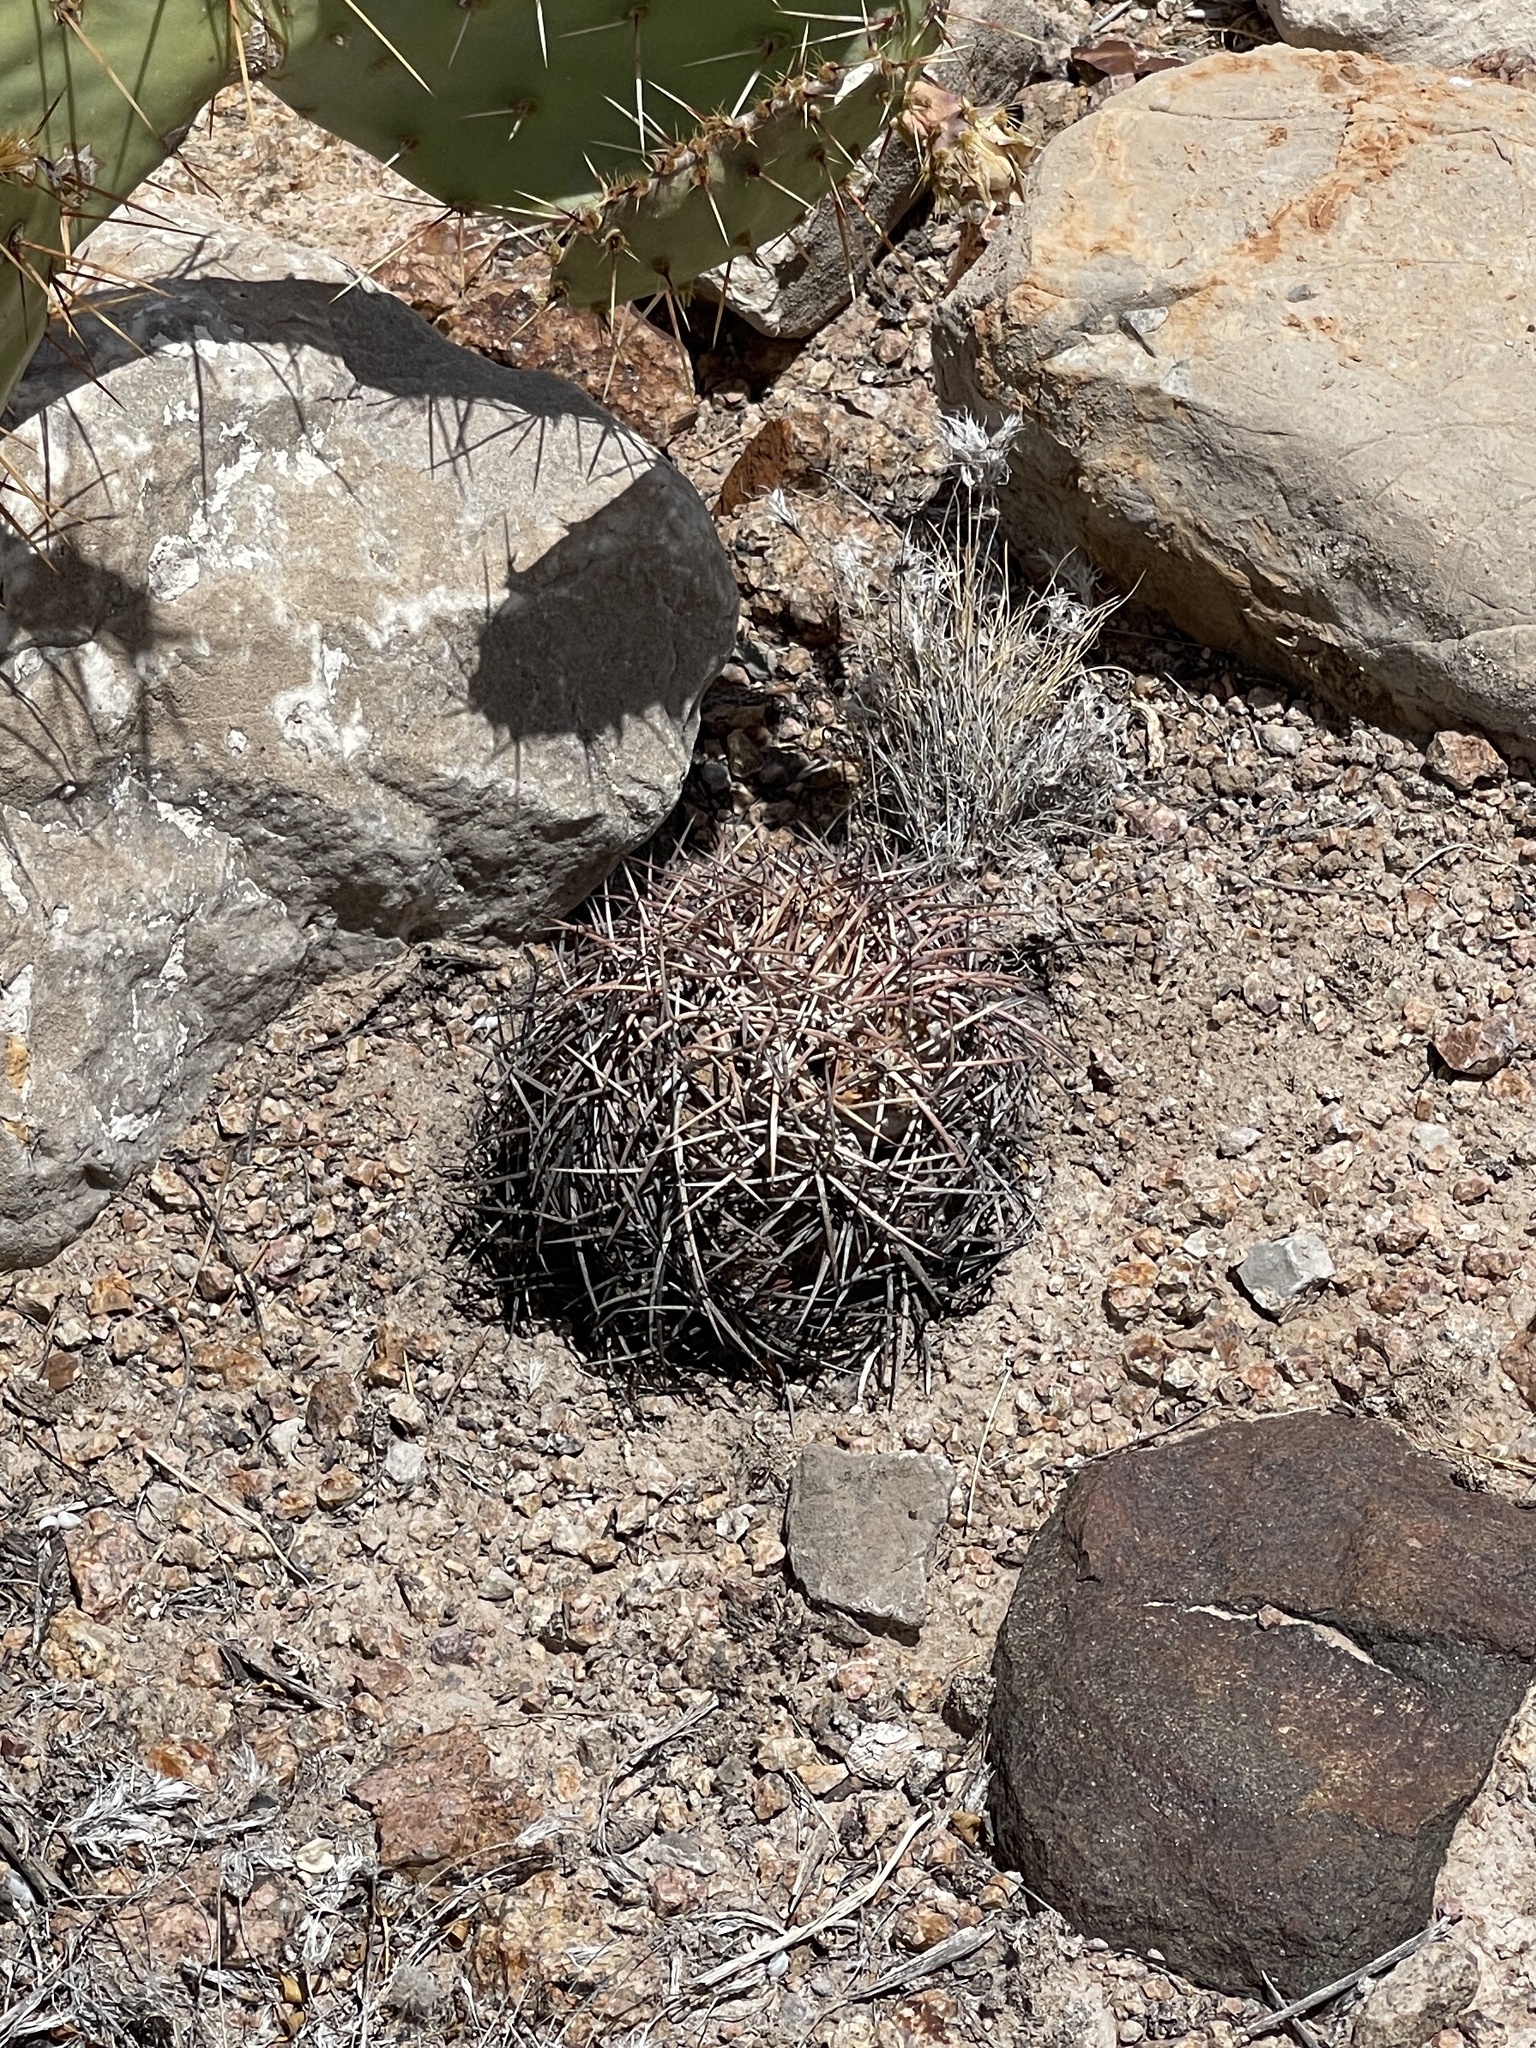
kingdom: Plantae
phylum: Tracheophyta
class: Magnoliopsida
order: Caryophyllales
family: Cactaceae
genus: Echinocactus
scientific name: Echinocactus horizonthalonius
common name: Devilshead
